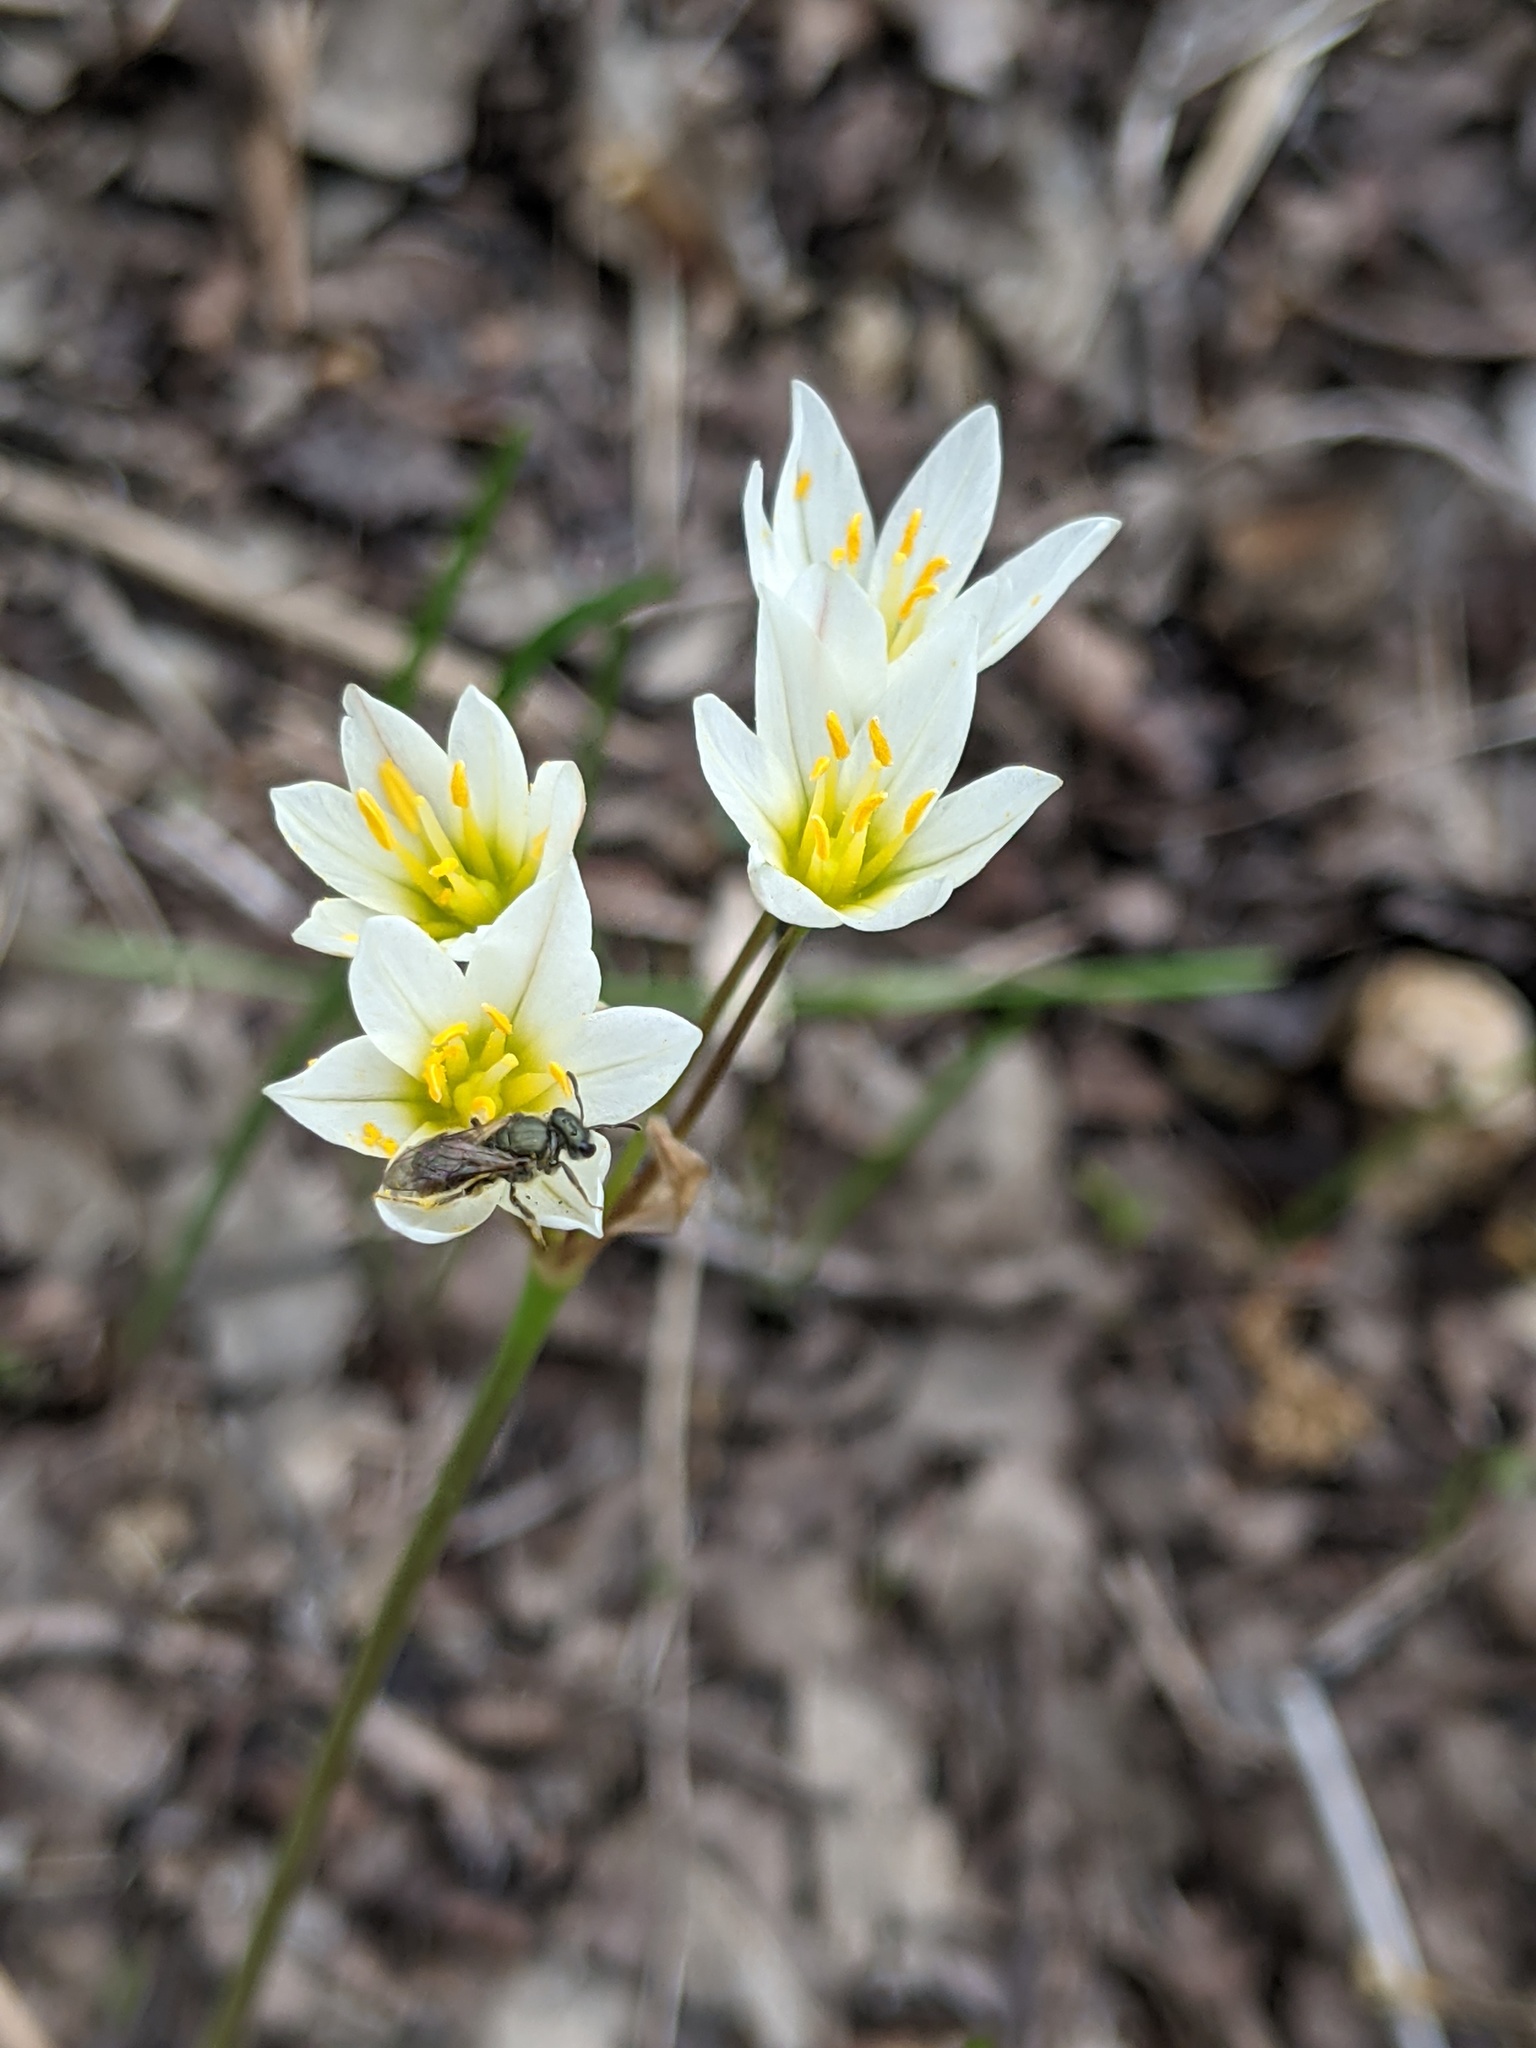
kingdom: Animalia
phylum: Arthropoda
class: Insecta
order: Hymenoptera
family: Halictidae
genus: Dialictus
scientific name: Dialictus
